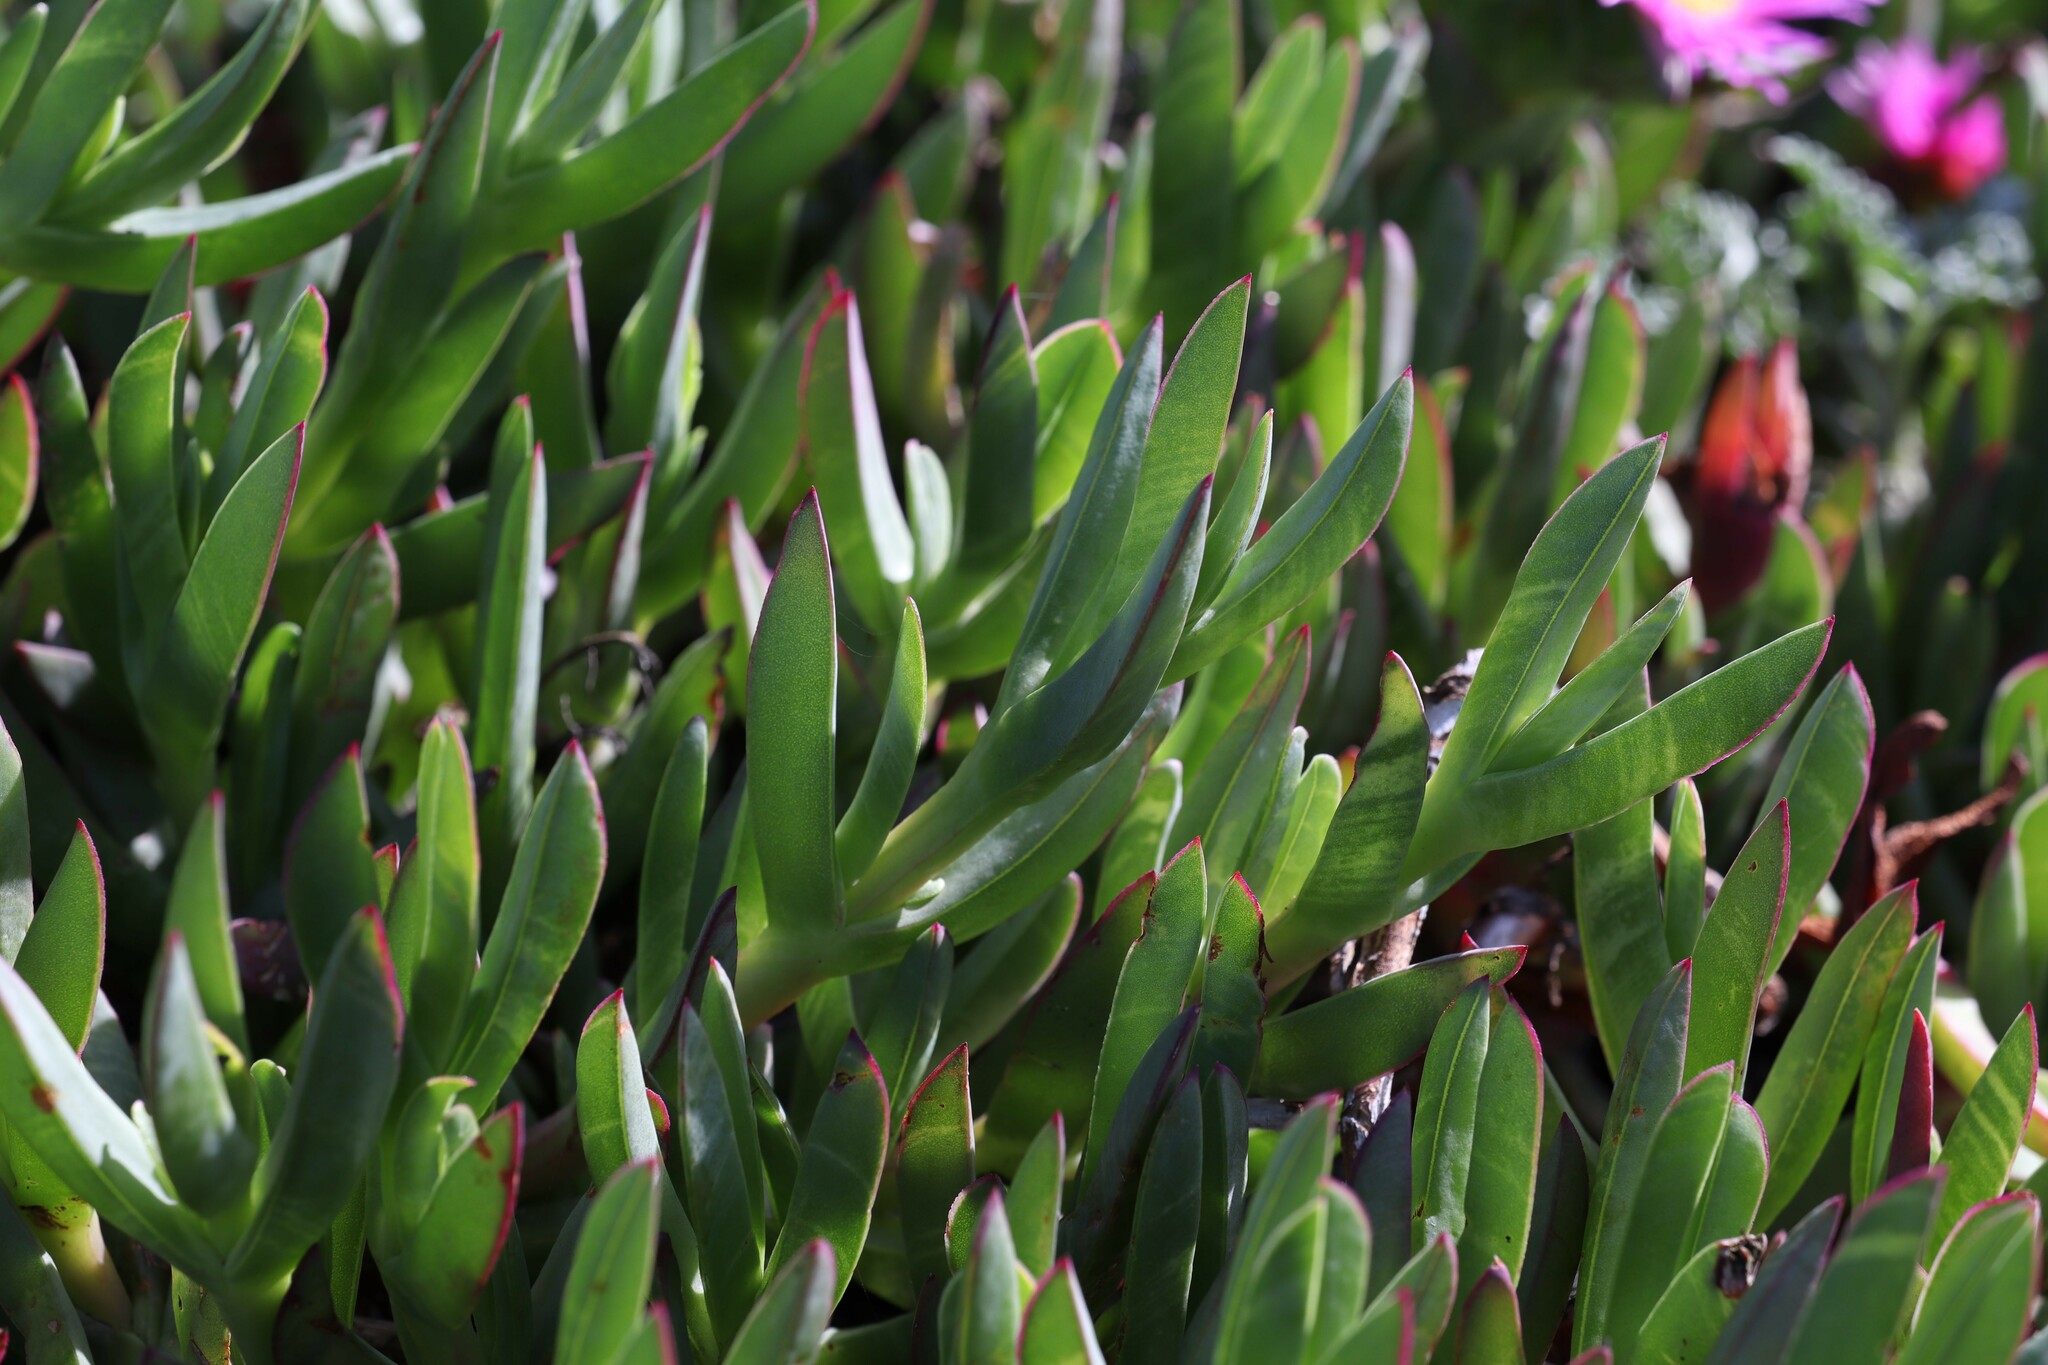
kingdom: Plantae
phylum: Tracheophyta
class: Magnoliopsida
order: Caryophyllales
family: Aizoaceae
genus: Carpobrotus
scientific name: Carpobrotus chilensis
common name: Sea fig
